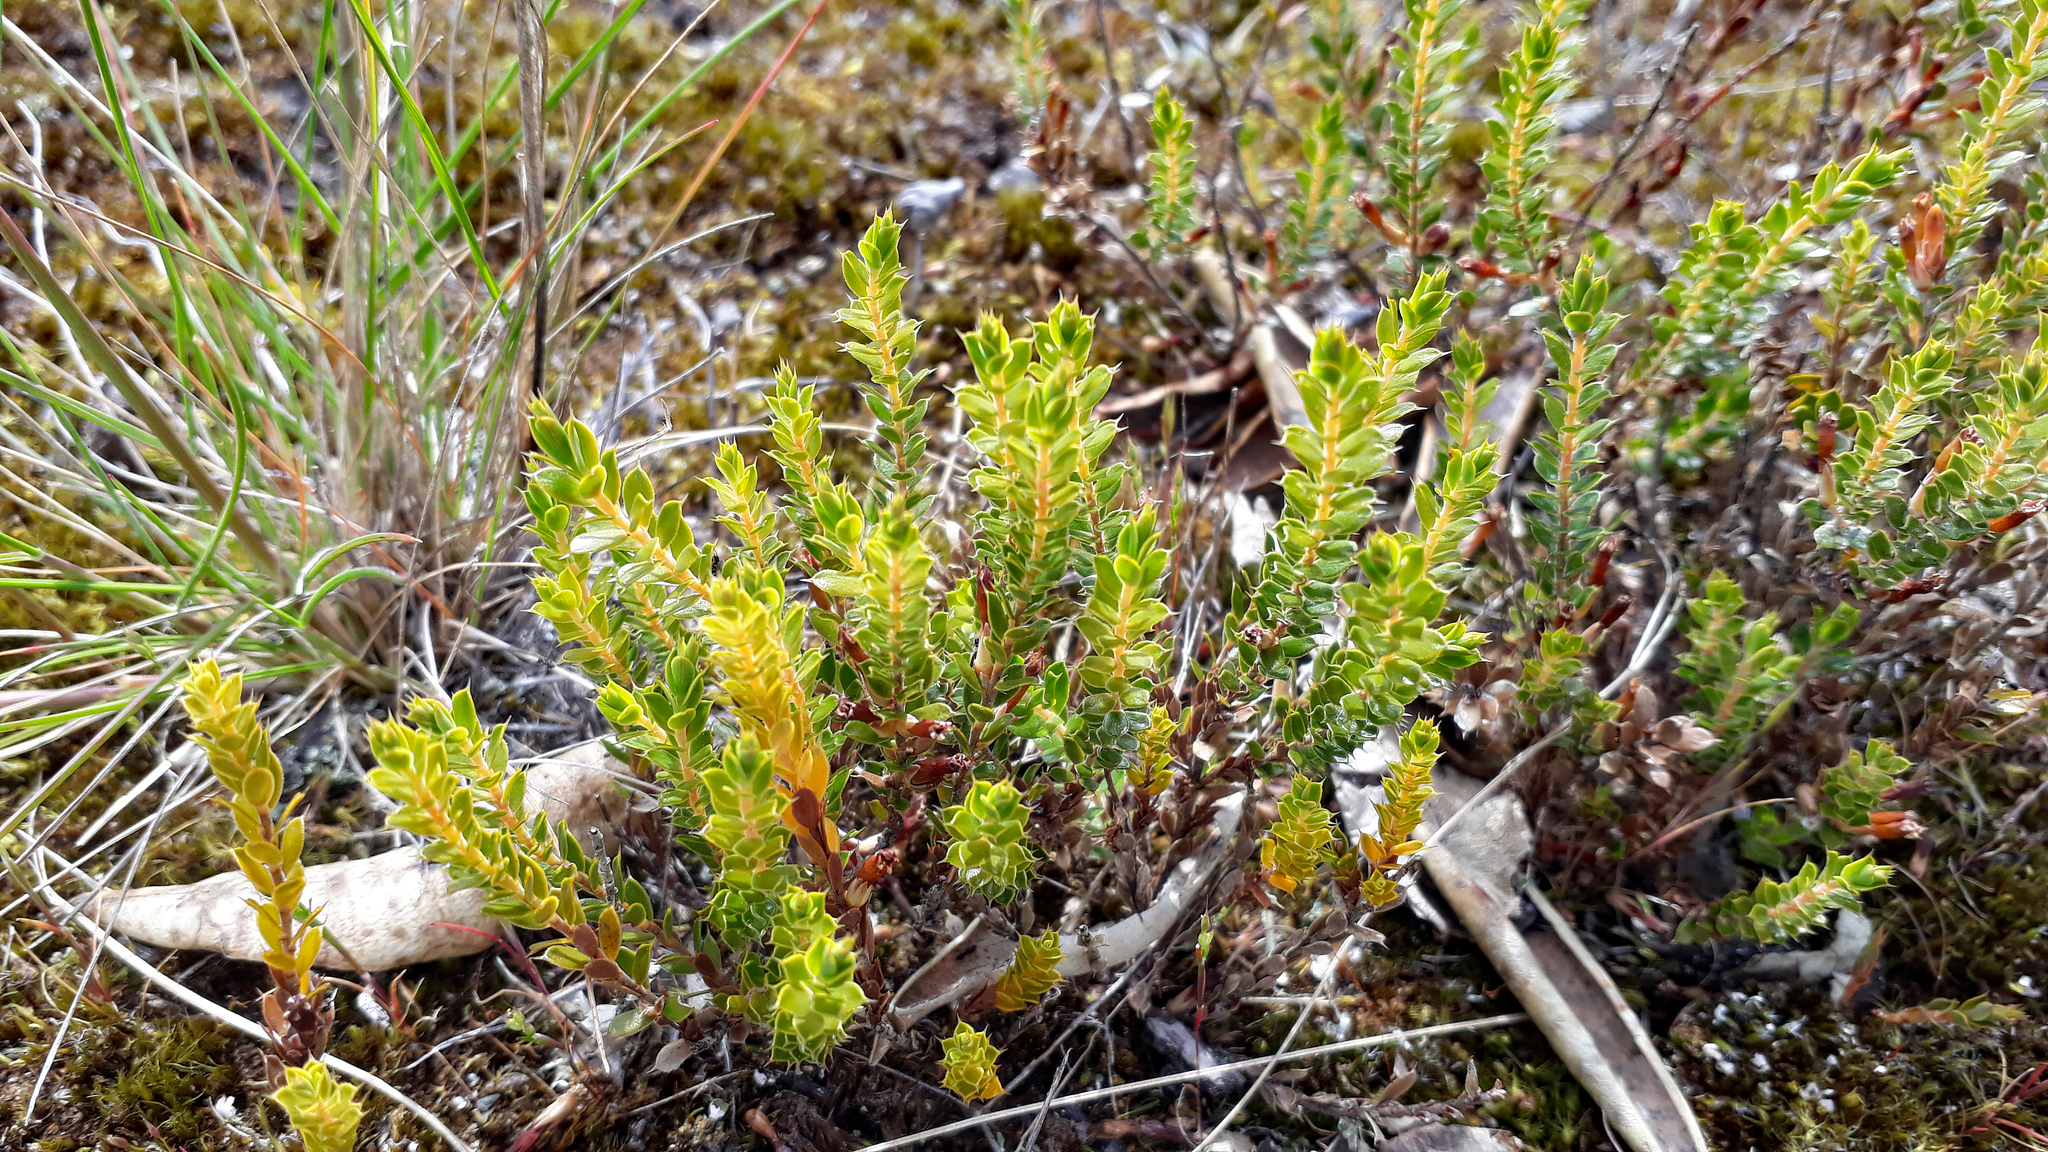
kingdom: Plantae
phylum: Tracheophyta
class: Magnoliopsida
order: Ericales
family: Ericaceae
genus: Styphelia
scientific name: Styphelia nesophila
